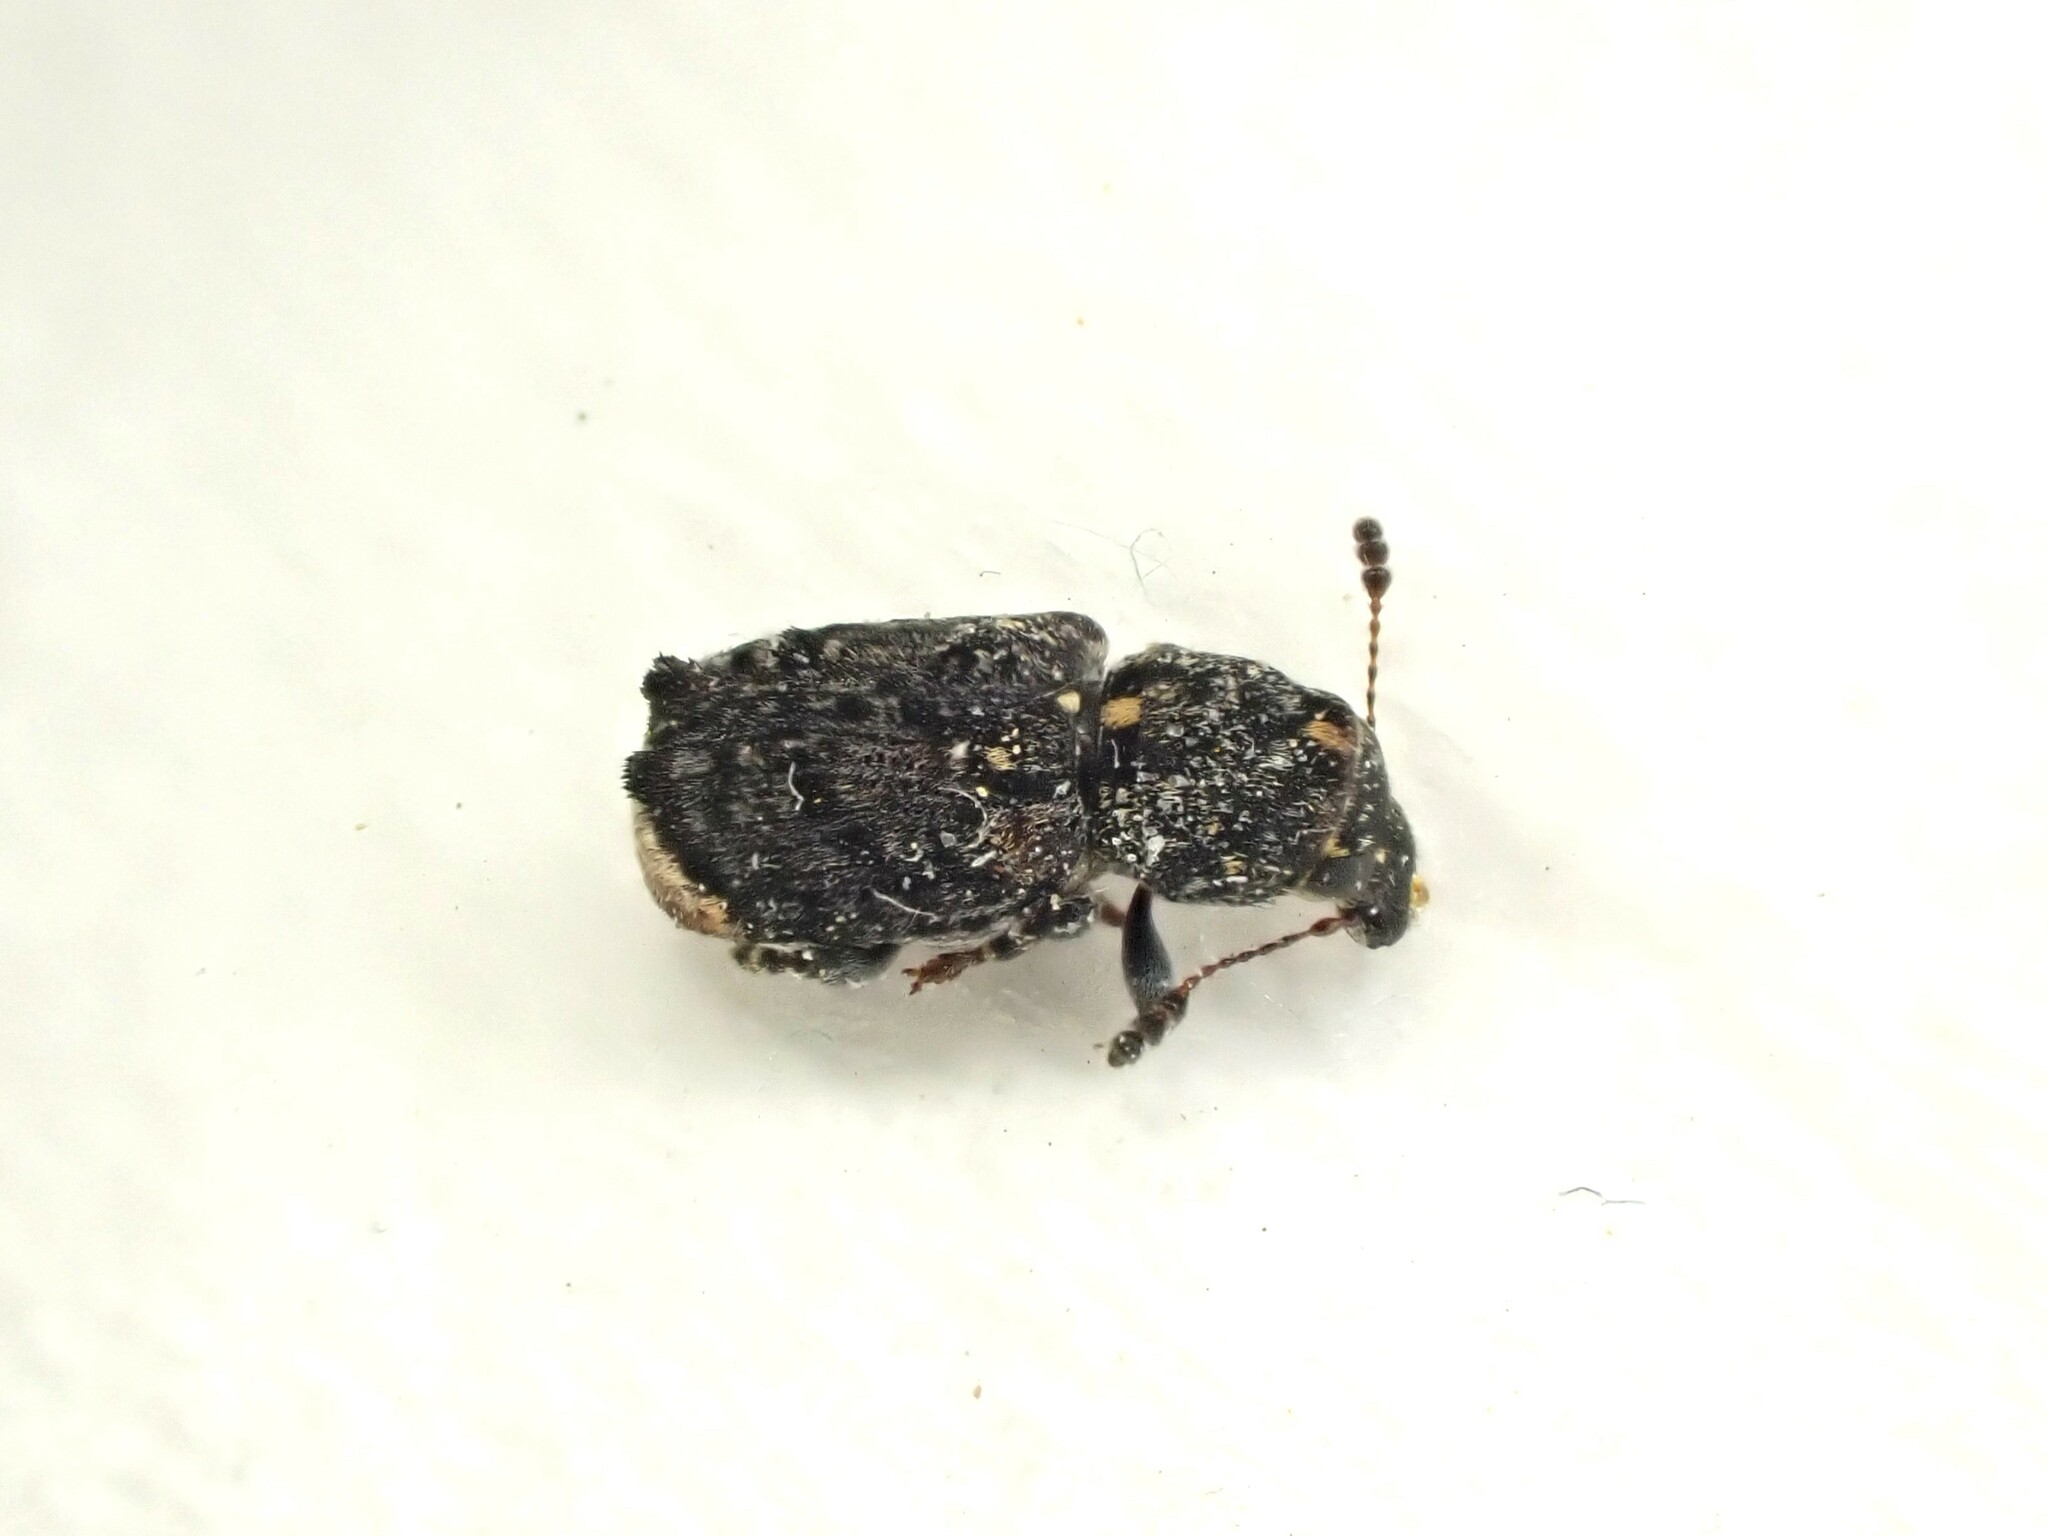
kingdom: Animalia
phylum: Arthropoda
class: Insecta
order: Coleoptera
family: Anthribidae
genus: Pleosporius
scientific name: Pleosporius bullatus
